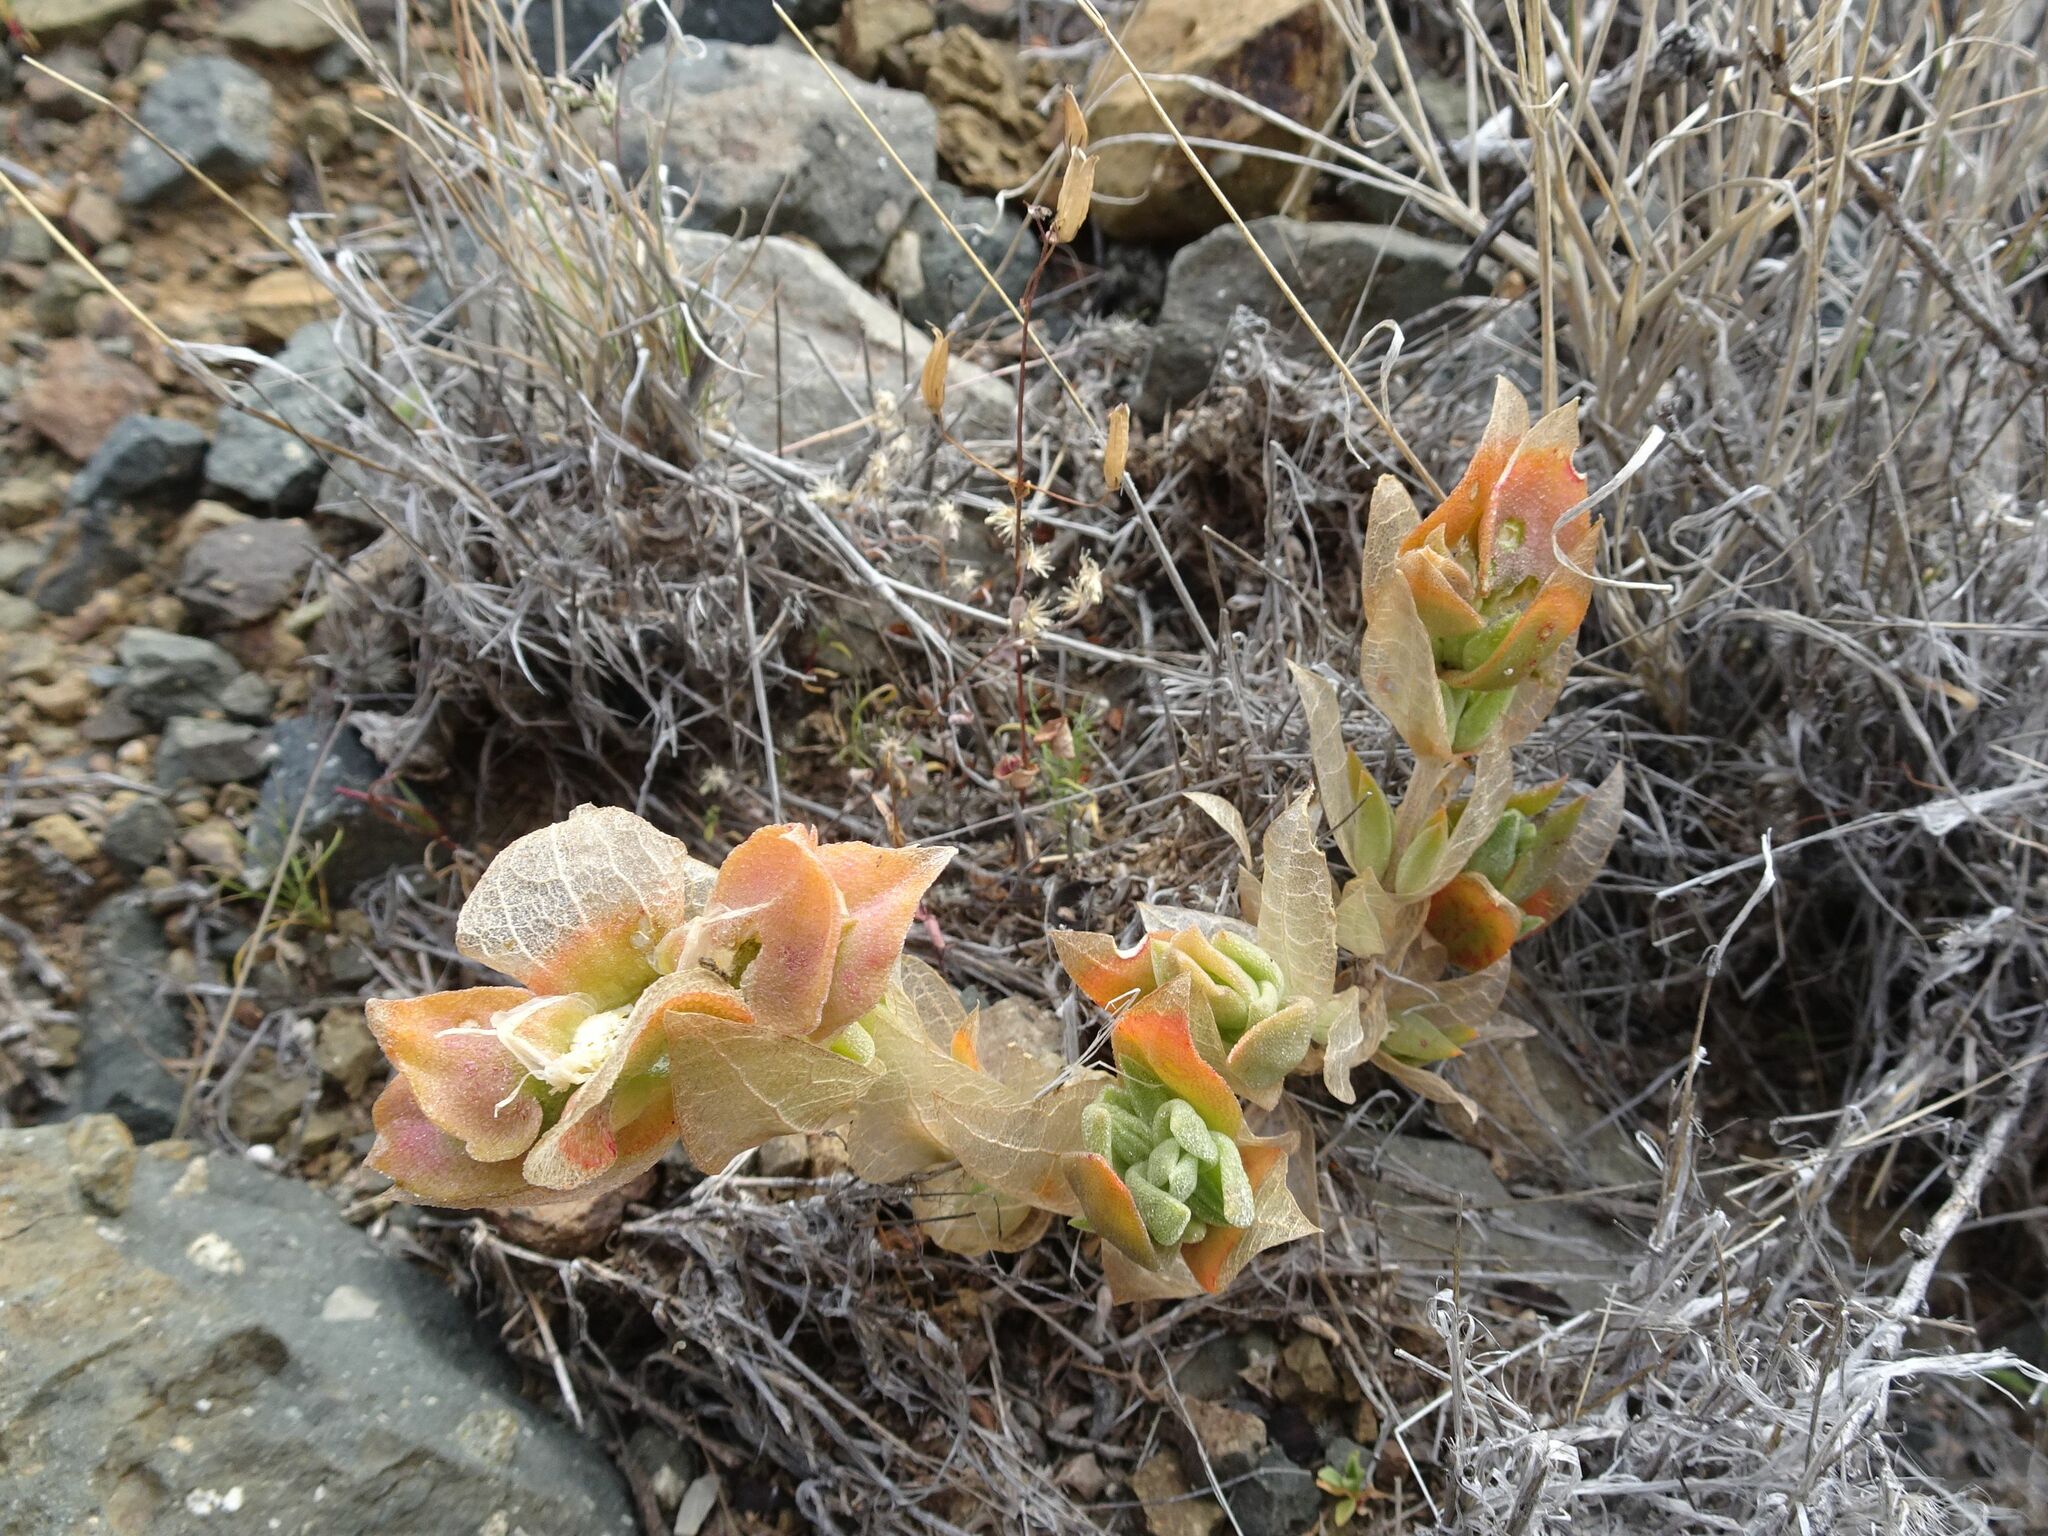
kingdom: Plantae
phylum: Tracheophyta
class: Magnoliopsida
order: Caryophyllales
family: Aizoaceae
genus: Mesembryanthemum
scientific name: Mesembryanthemum expansum
